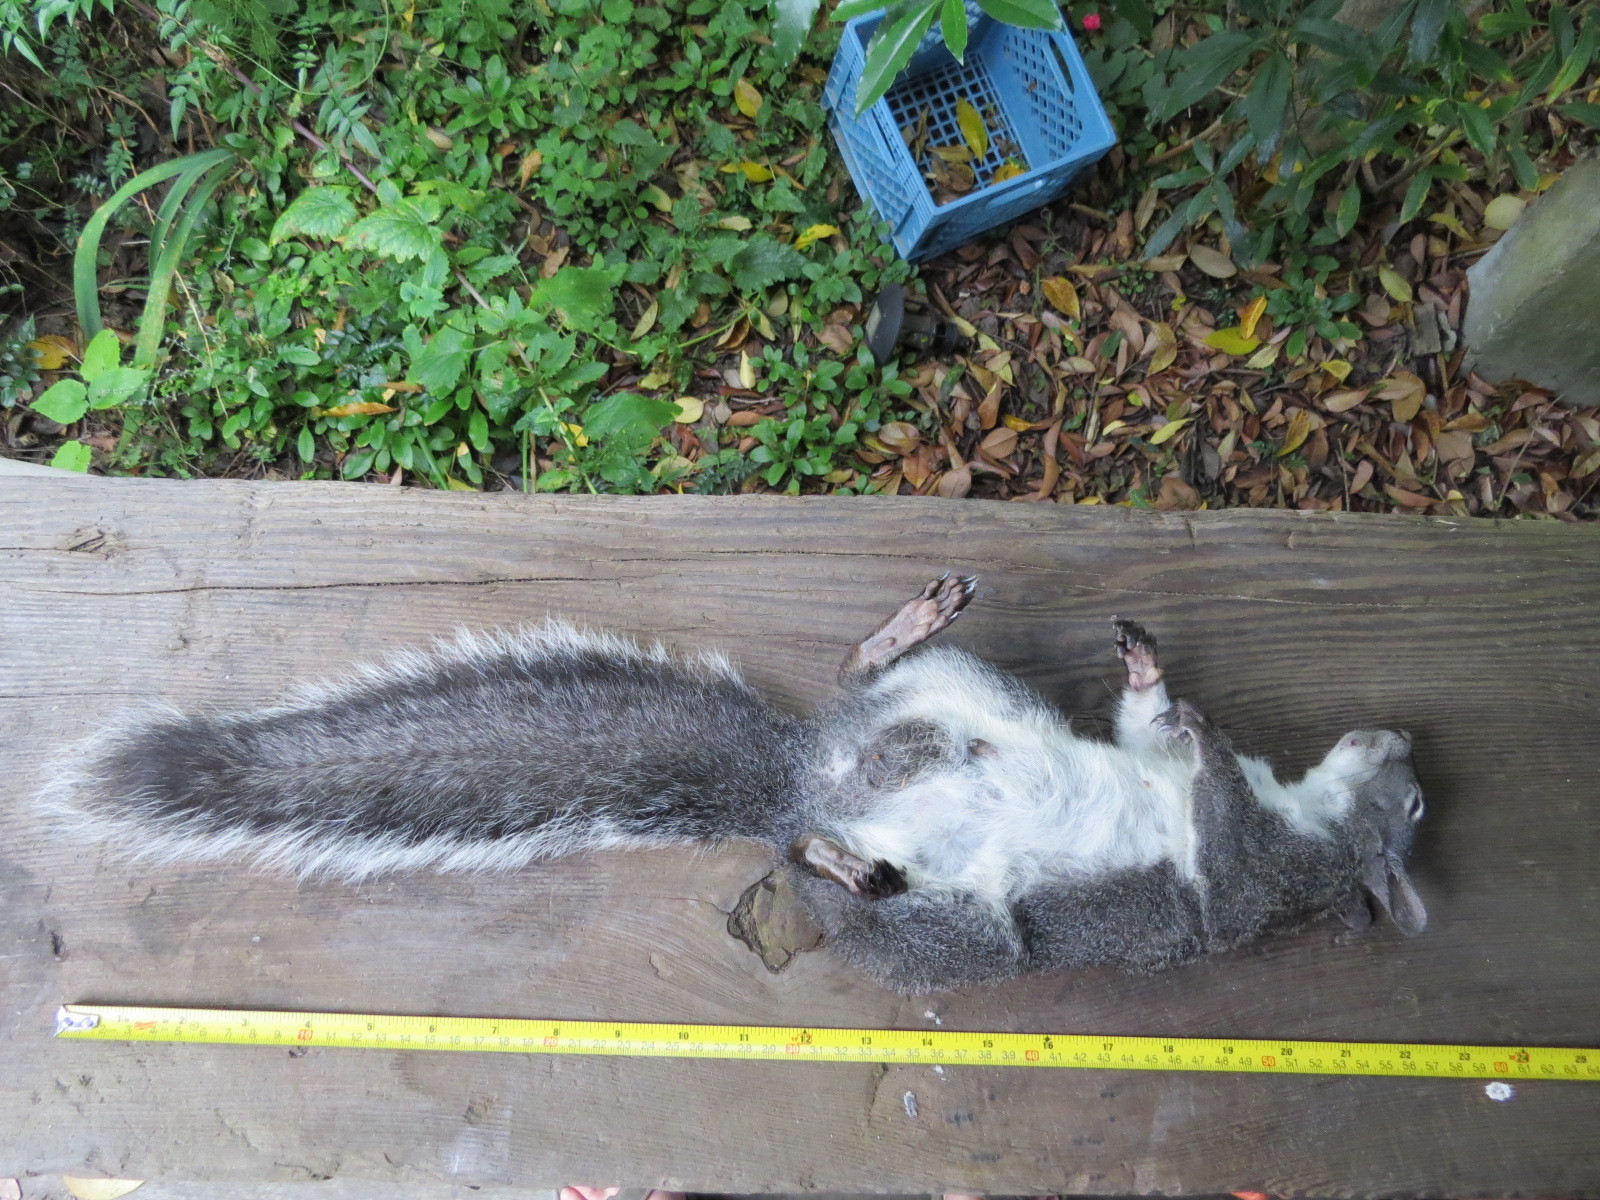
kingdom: Animalia
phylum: Chordata
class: Mammalia
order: Rodentia
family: Sciuridae
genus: Sciurus
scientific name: Sciurus griseus
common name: Western gray squirrel
